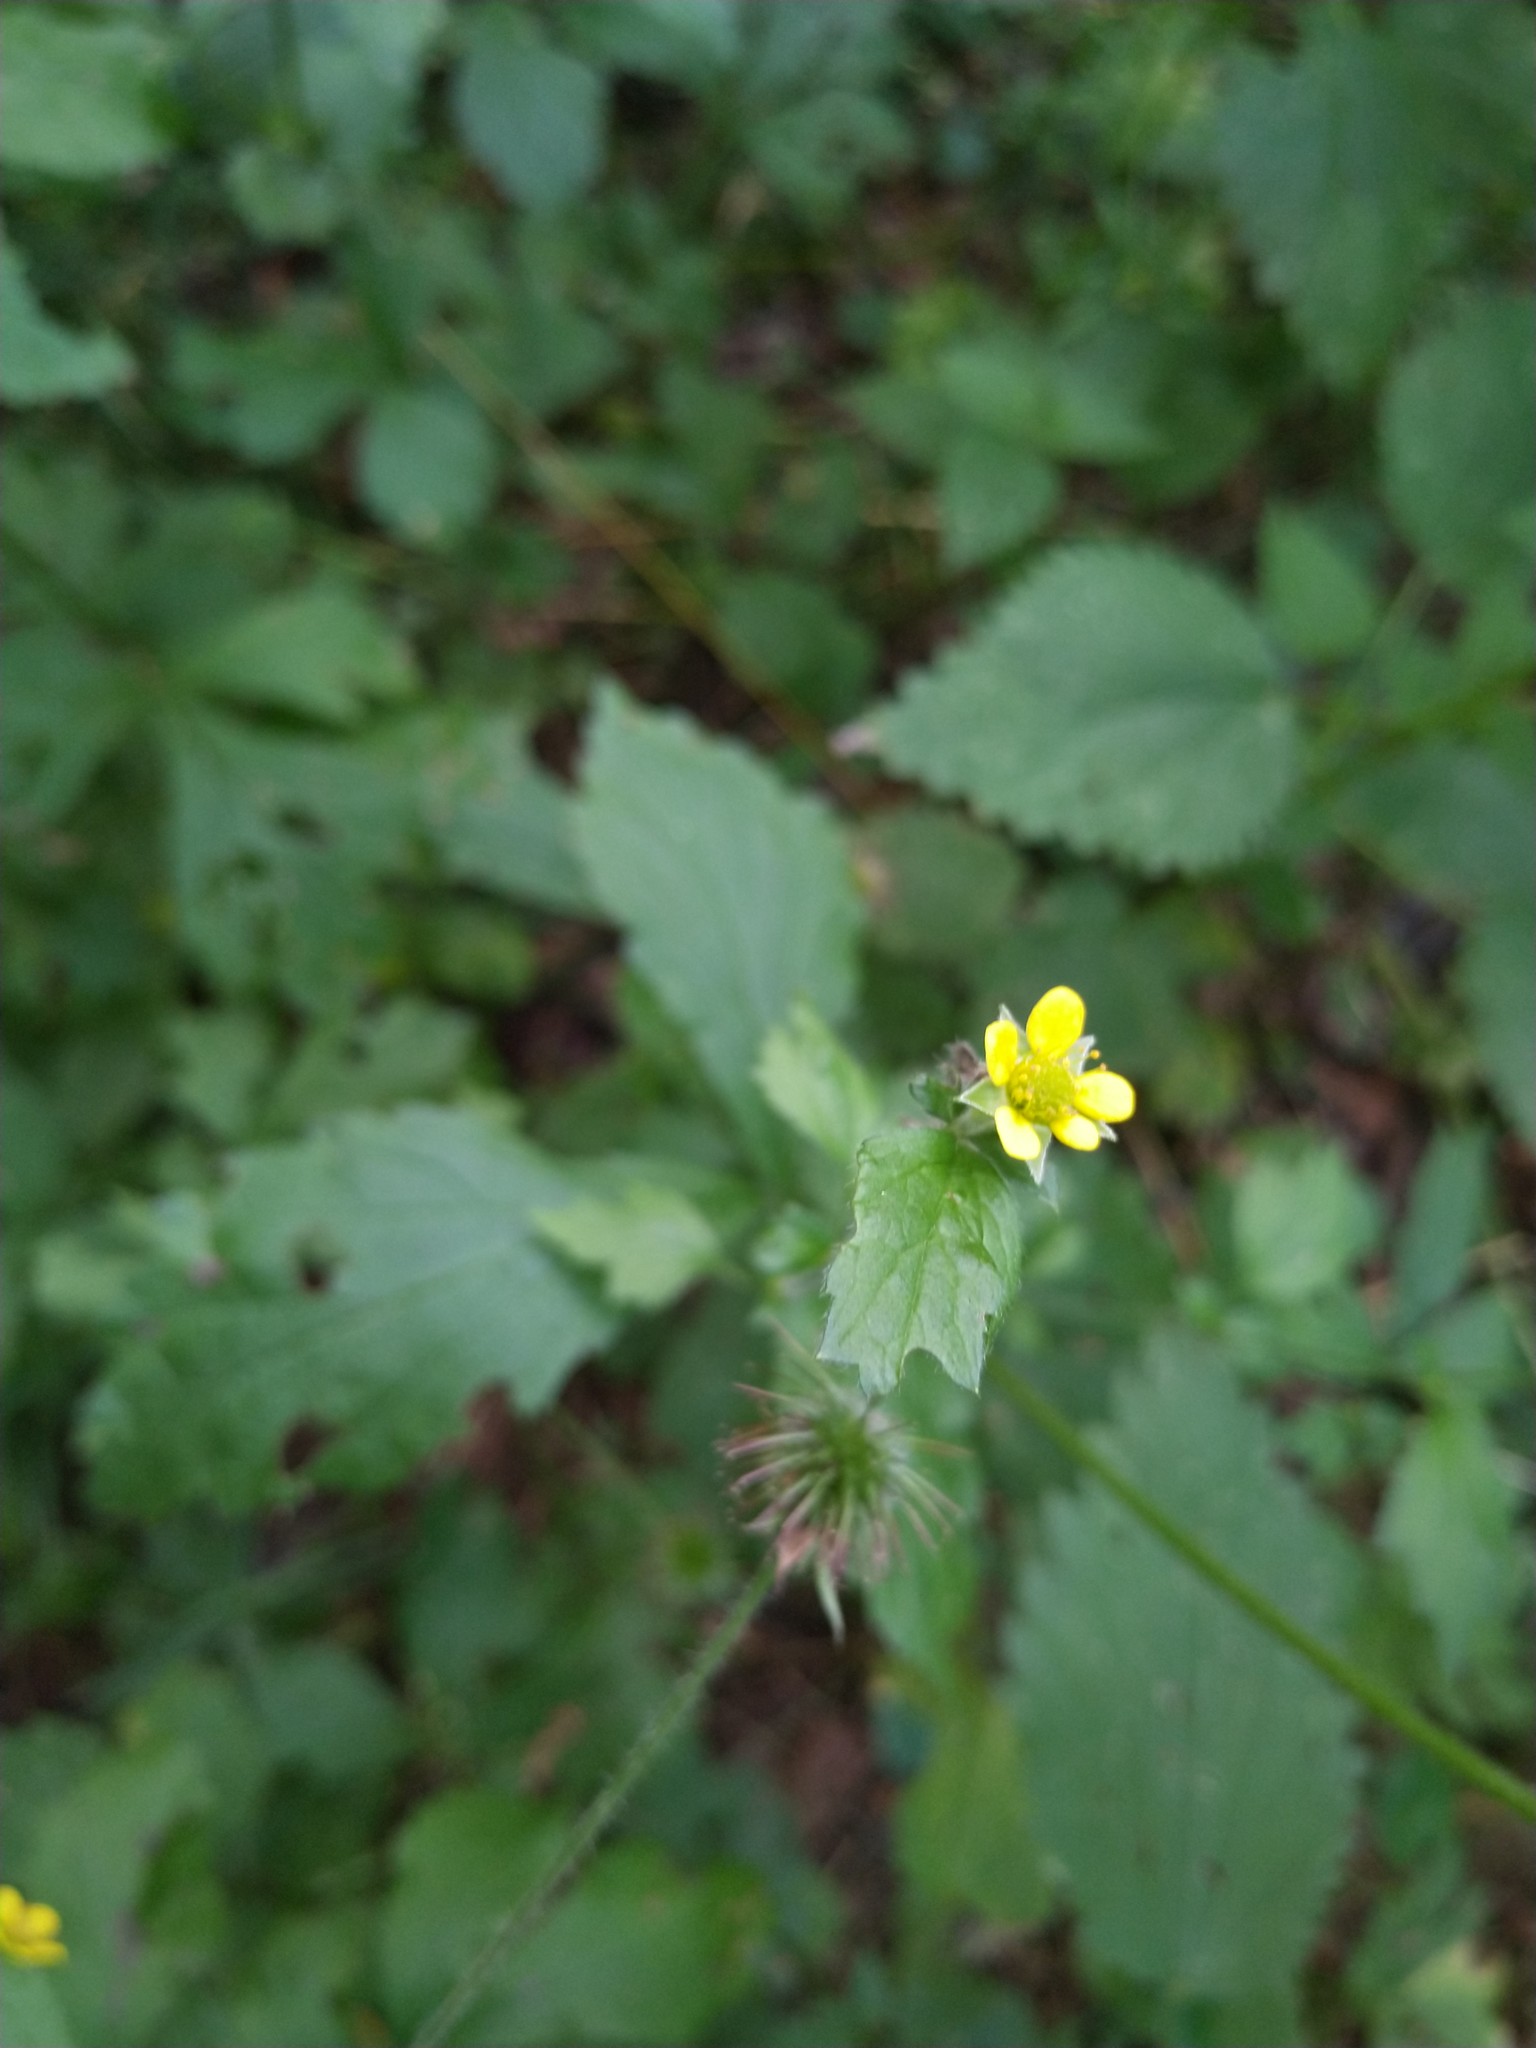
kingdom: Plantae
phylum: Tracheophyta
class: Magnoliopsida
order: Rosales
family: Rosaceae
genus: Geum
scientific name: Geum urbanum
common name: Wood avens
